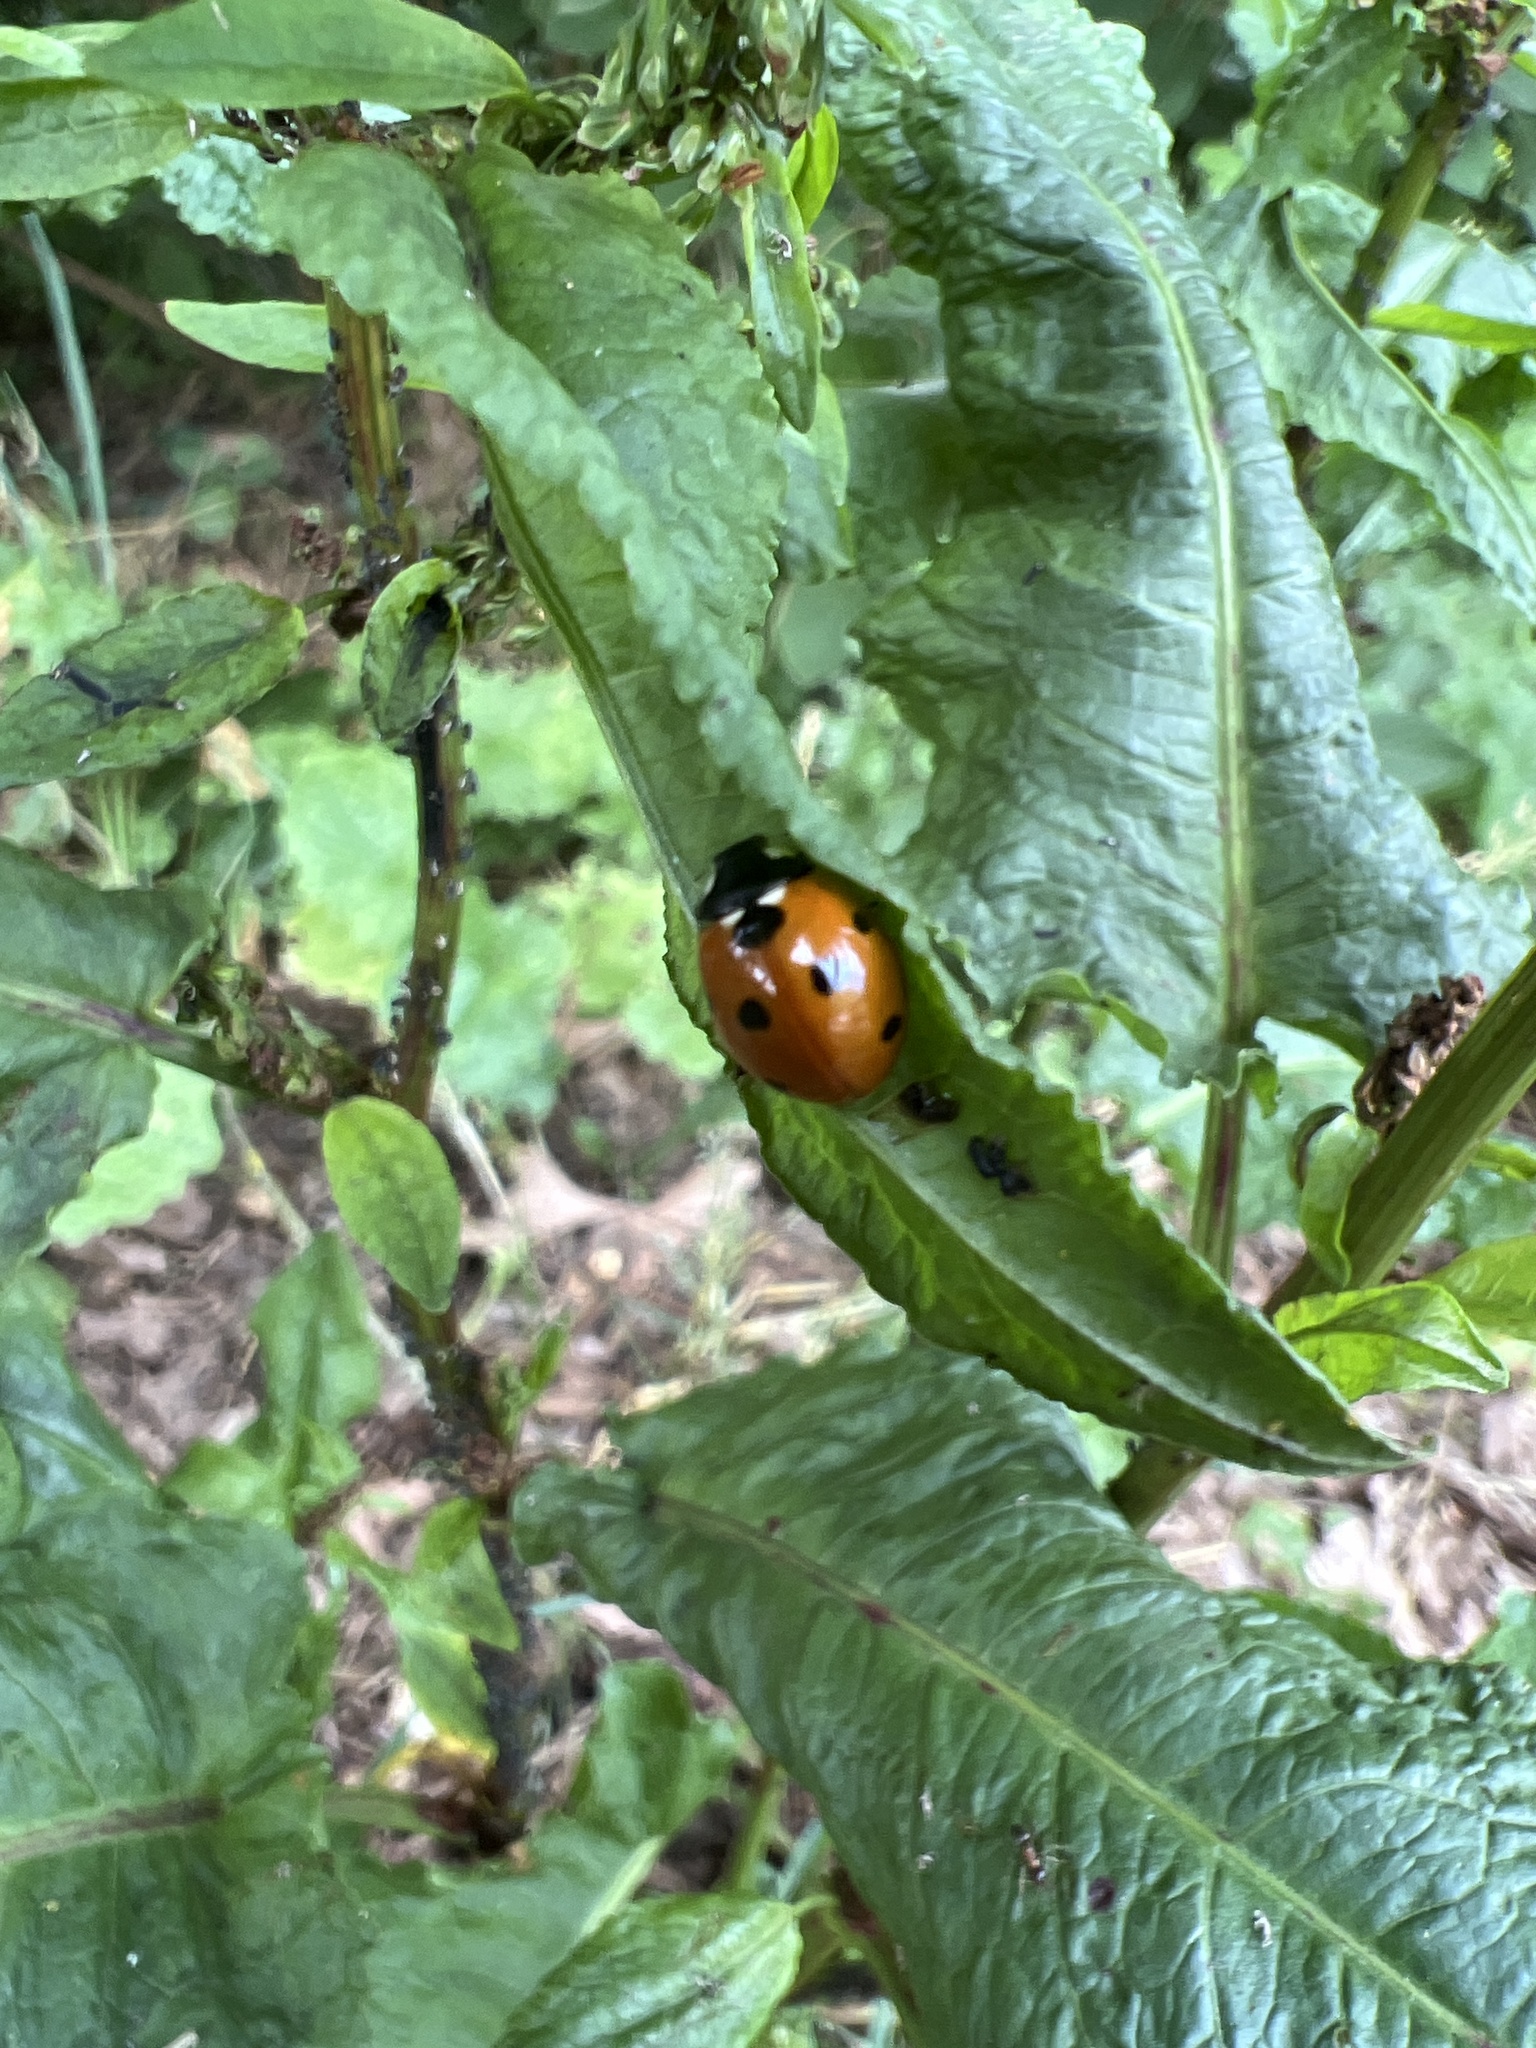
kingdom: Animalia
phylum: Arthropoda
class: Insecta
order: Coleoptera
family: Coccinellidae
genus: Coccinella
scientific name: Coccinella septempunctata
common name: Sevenspotted lady beetle
